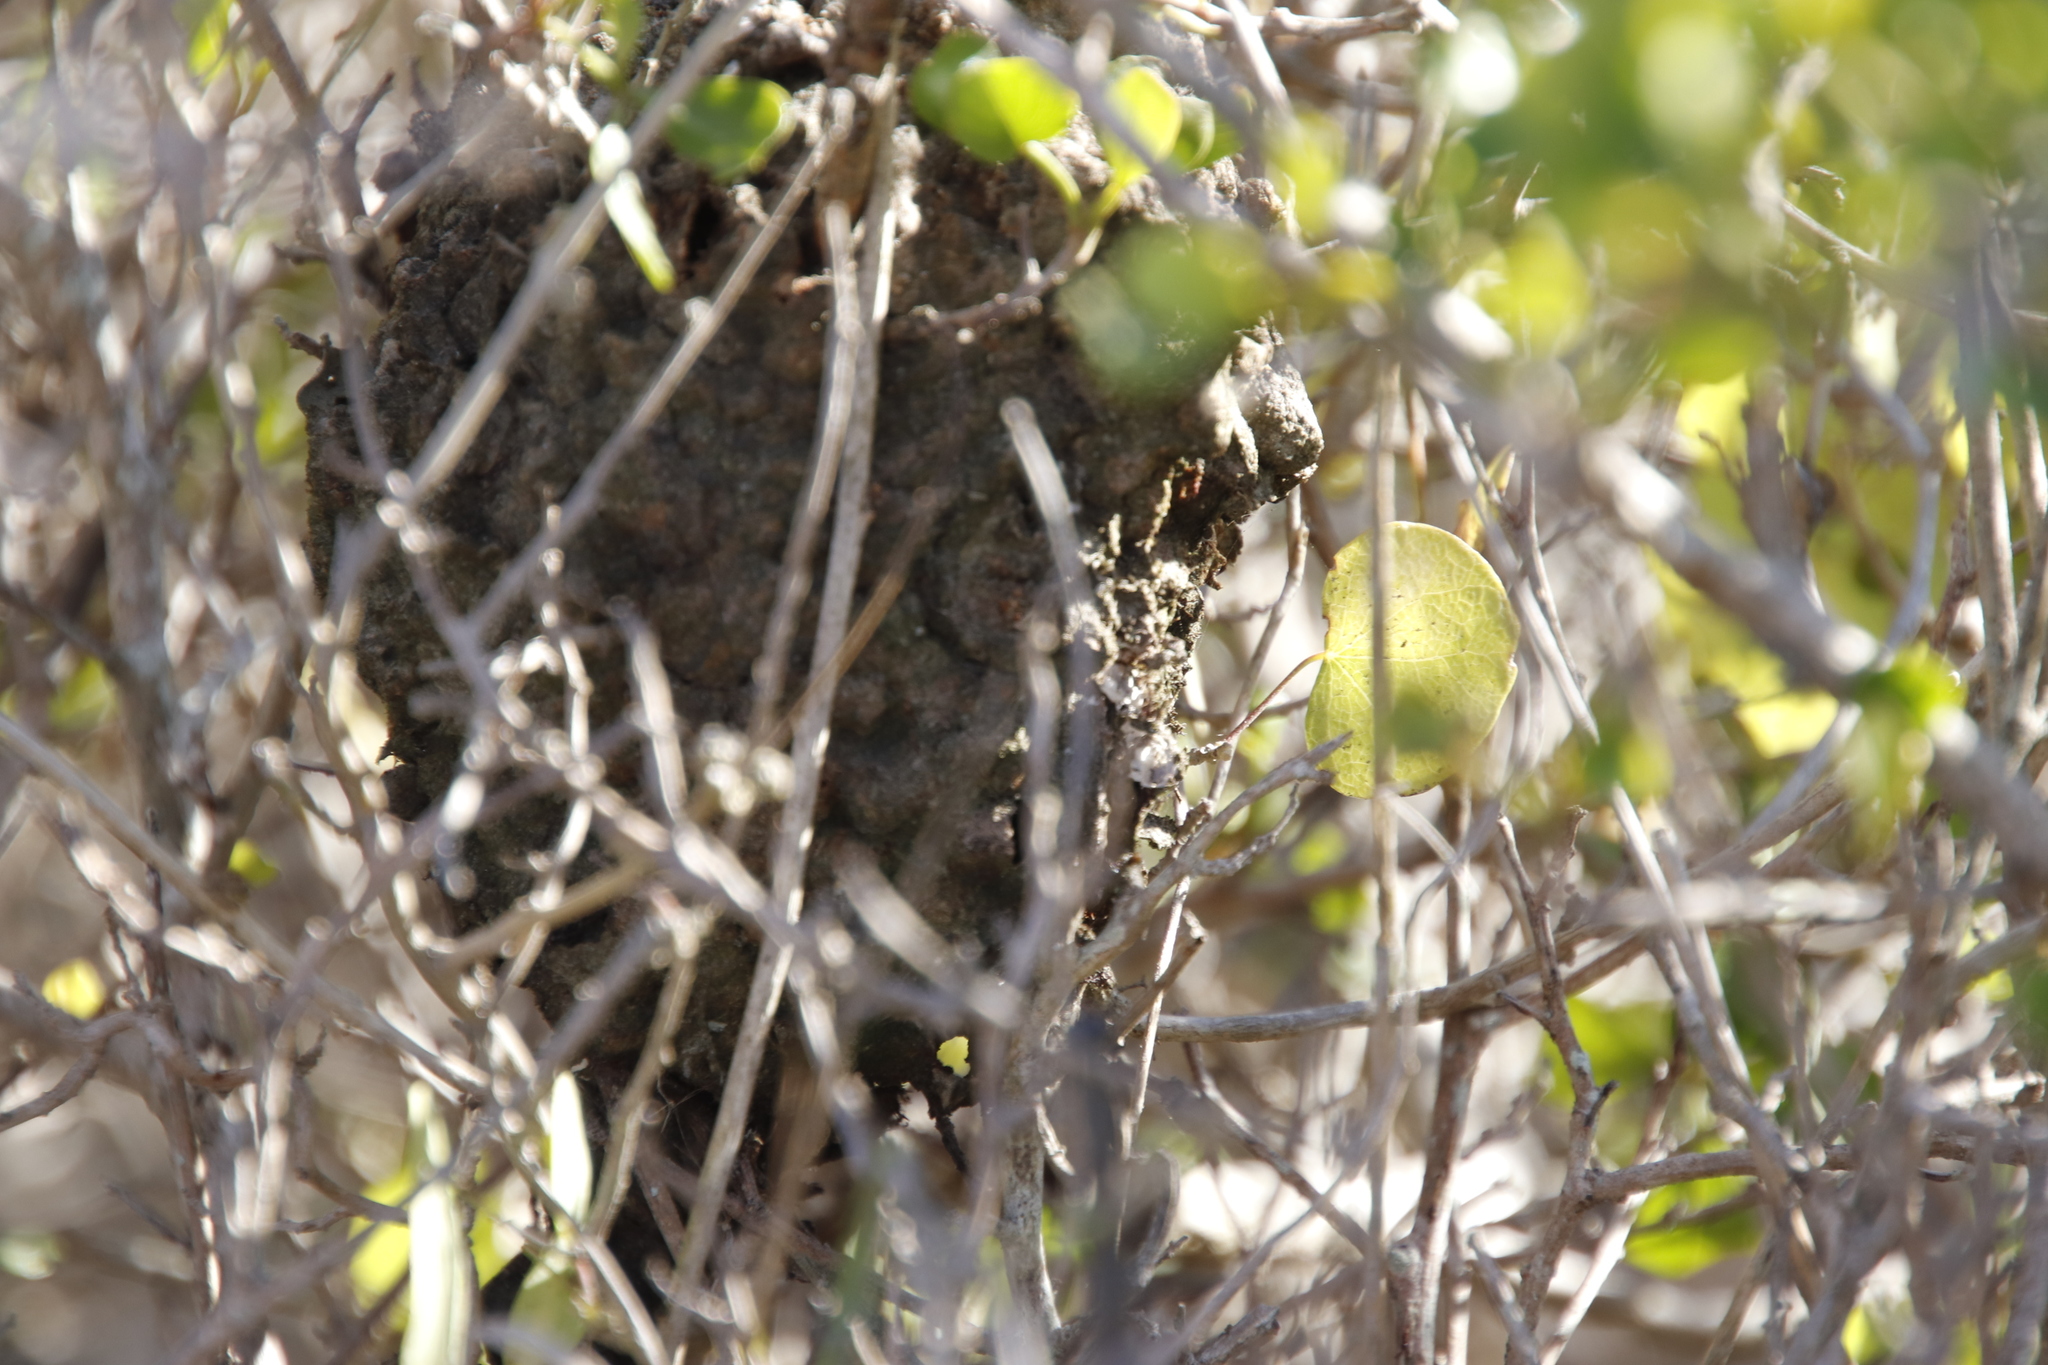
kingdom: Animalia
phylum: Arthropoda
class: Insecta
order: Hymenoptera
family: Formicidae
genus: Crematogaster
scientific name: Crematogaster peringueyi
